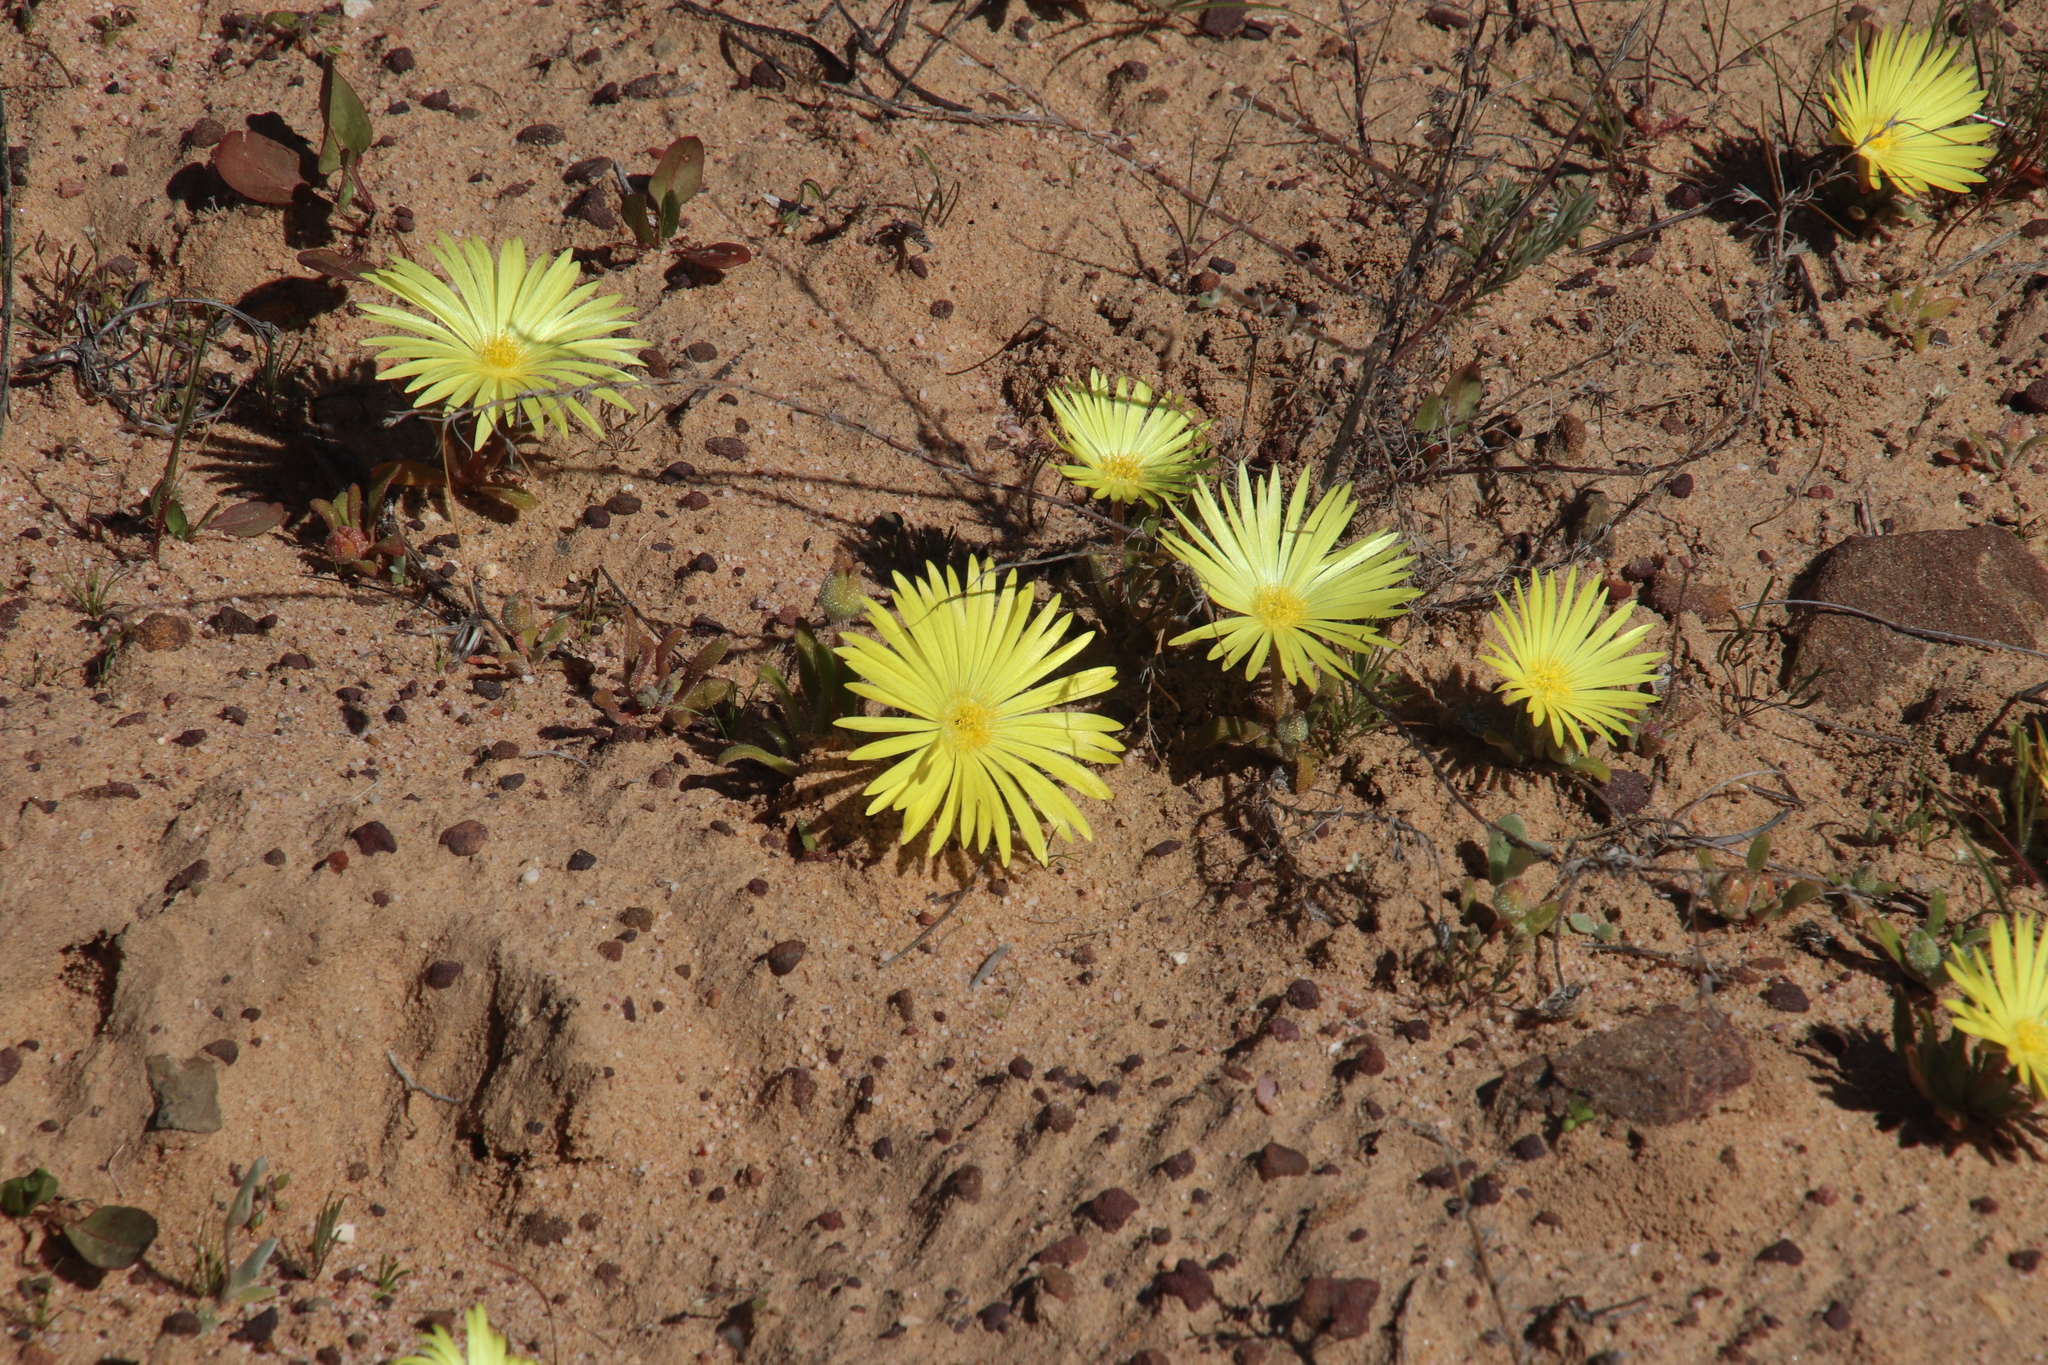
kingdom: Plantae
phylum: Tracheophyta
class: Magnoliopsida
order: Caryophyllales
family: Aizoaceae
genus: Cleretum
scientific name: Cleretum bellidiforme
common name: Livingstone daisy
